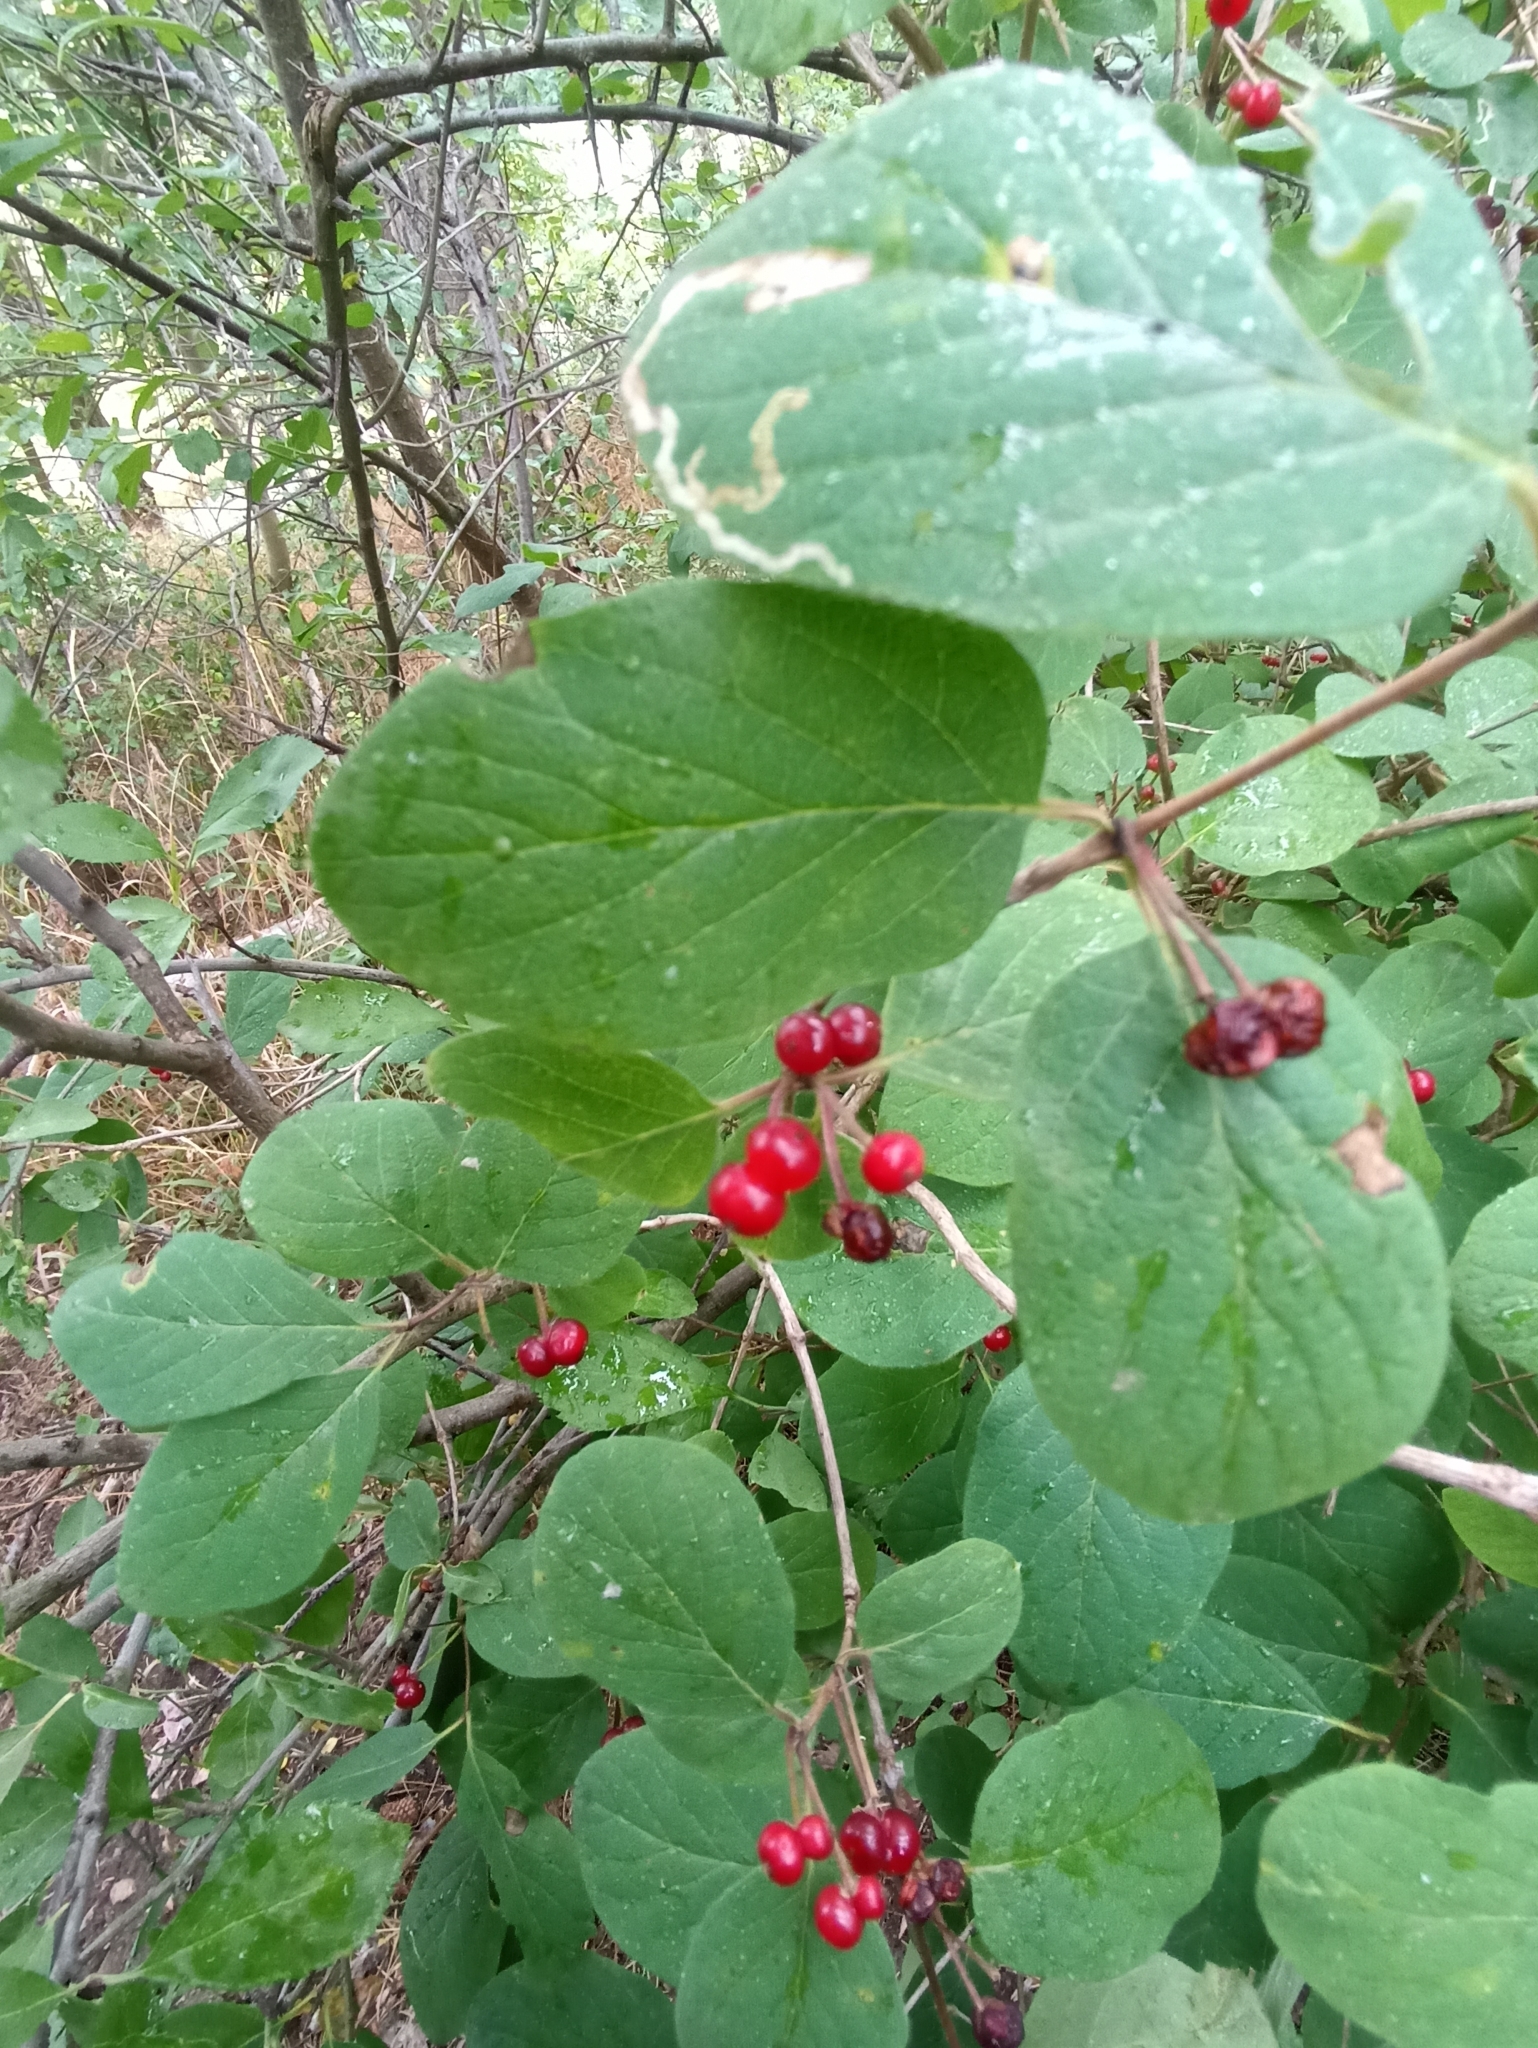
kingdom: Plantae
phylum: Tracheophyta
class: Magnoliopsida
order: Dipsacales
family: Caprifoliaceae
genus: Lonicera
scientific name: Lonicera xylosteum
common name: Fly honeysuckle
